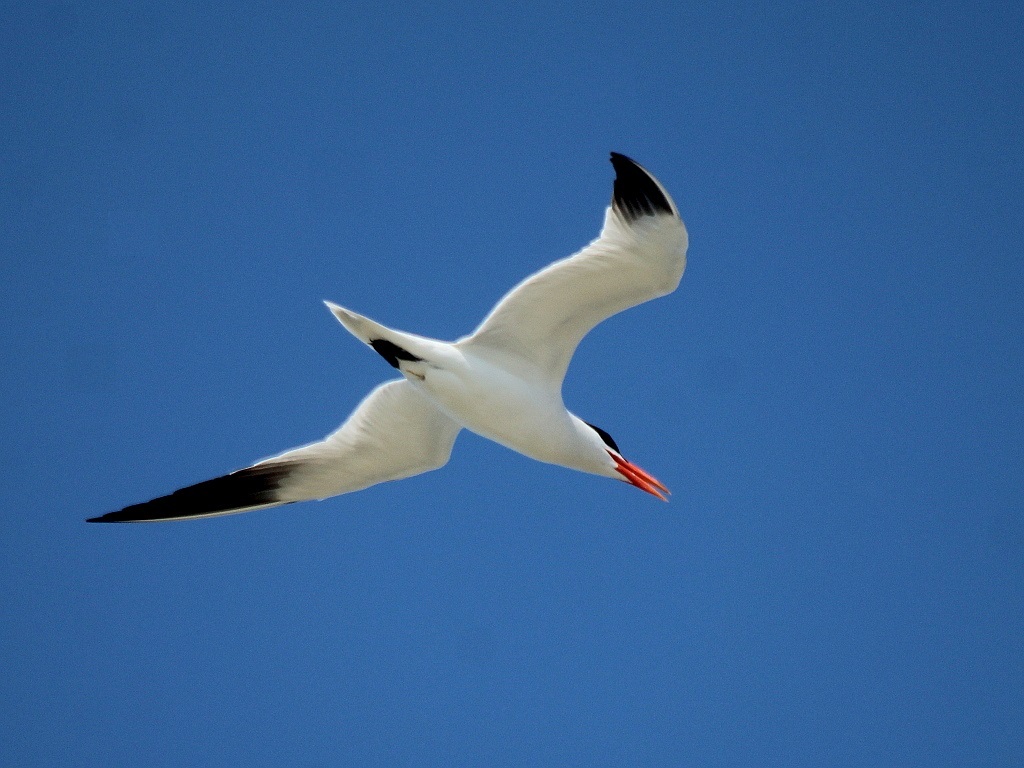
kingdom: Animalia
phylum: Chordata
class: Aves
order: Charadriiformes
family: Laridae
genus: Hydroprogne
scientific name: Hydroprogne caspia
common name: Caspian tern
